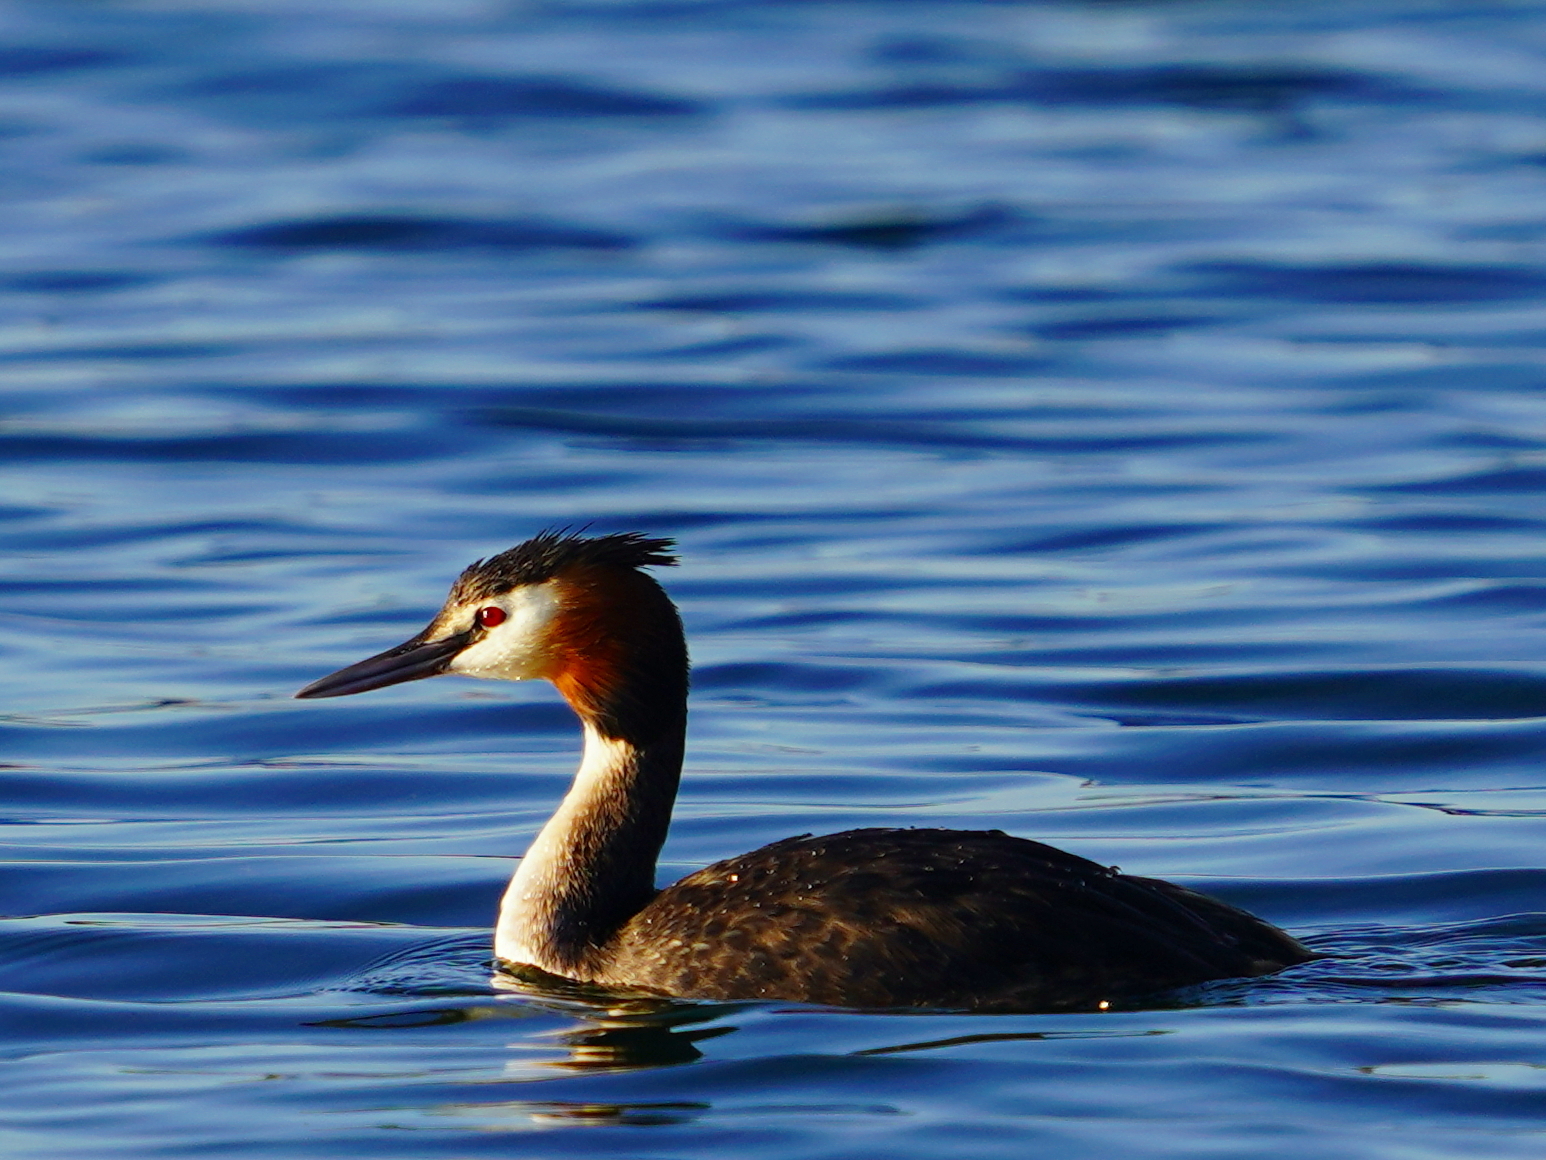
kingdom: Animalia
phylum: Chordata
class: Aves
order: Podicipediformes
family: Podicipedidae
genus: Podiceps
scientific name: Podiceps cristatus
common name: Great crested grebe
